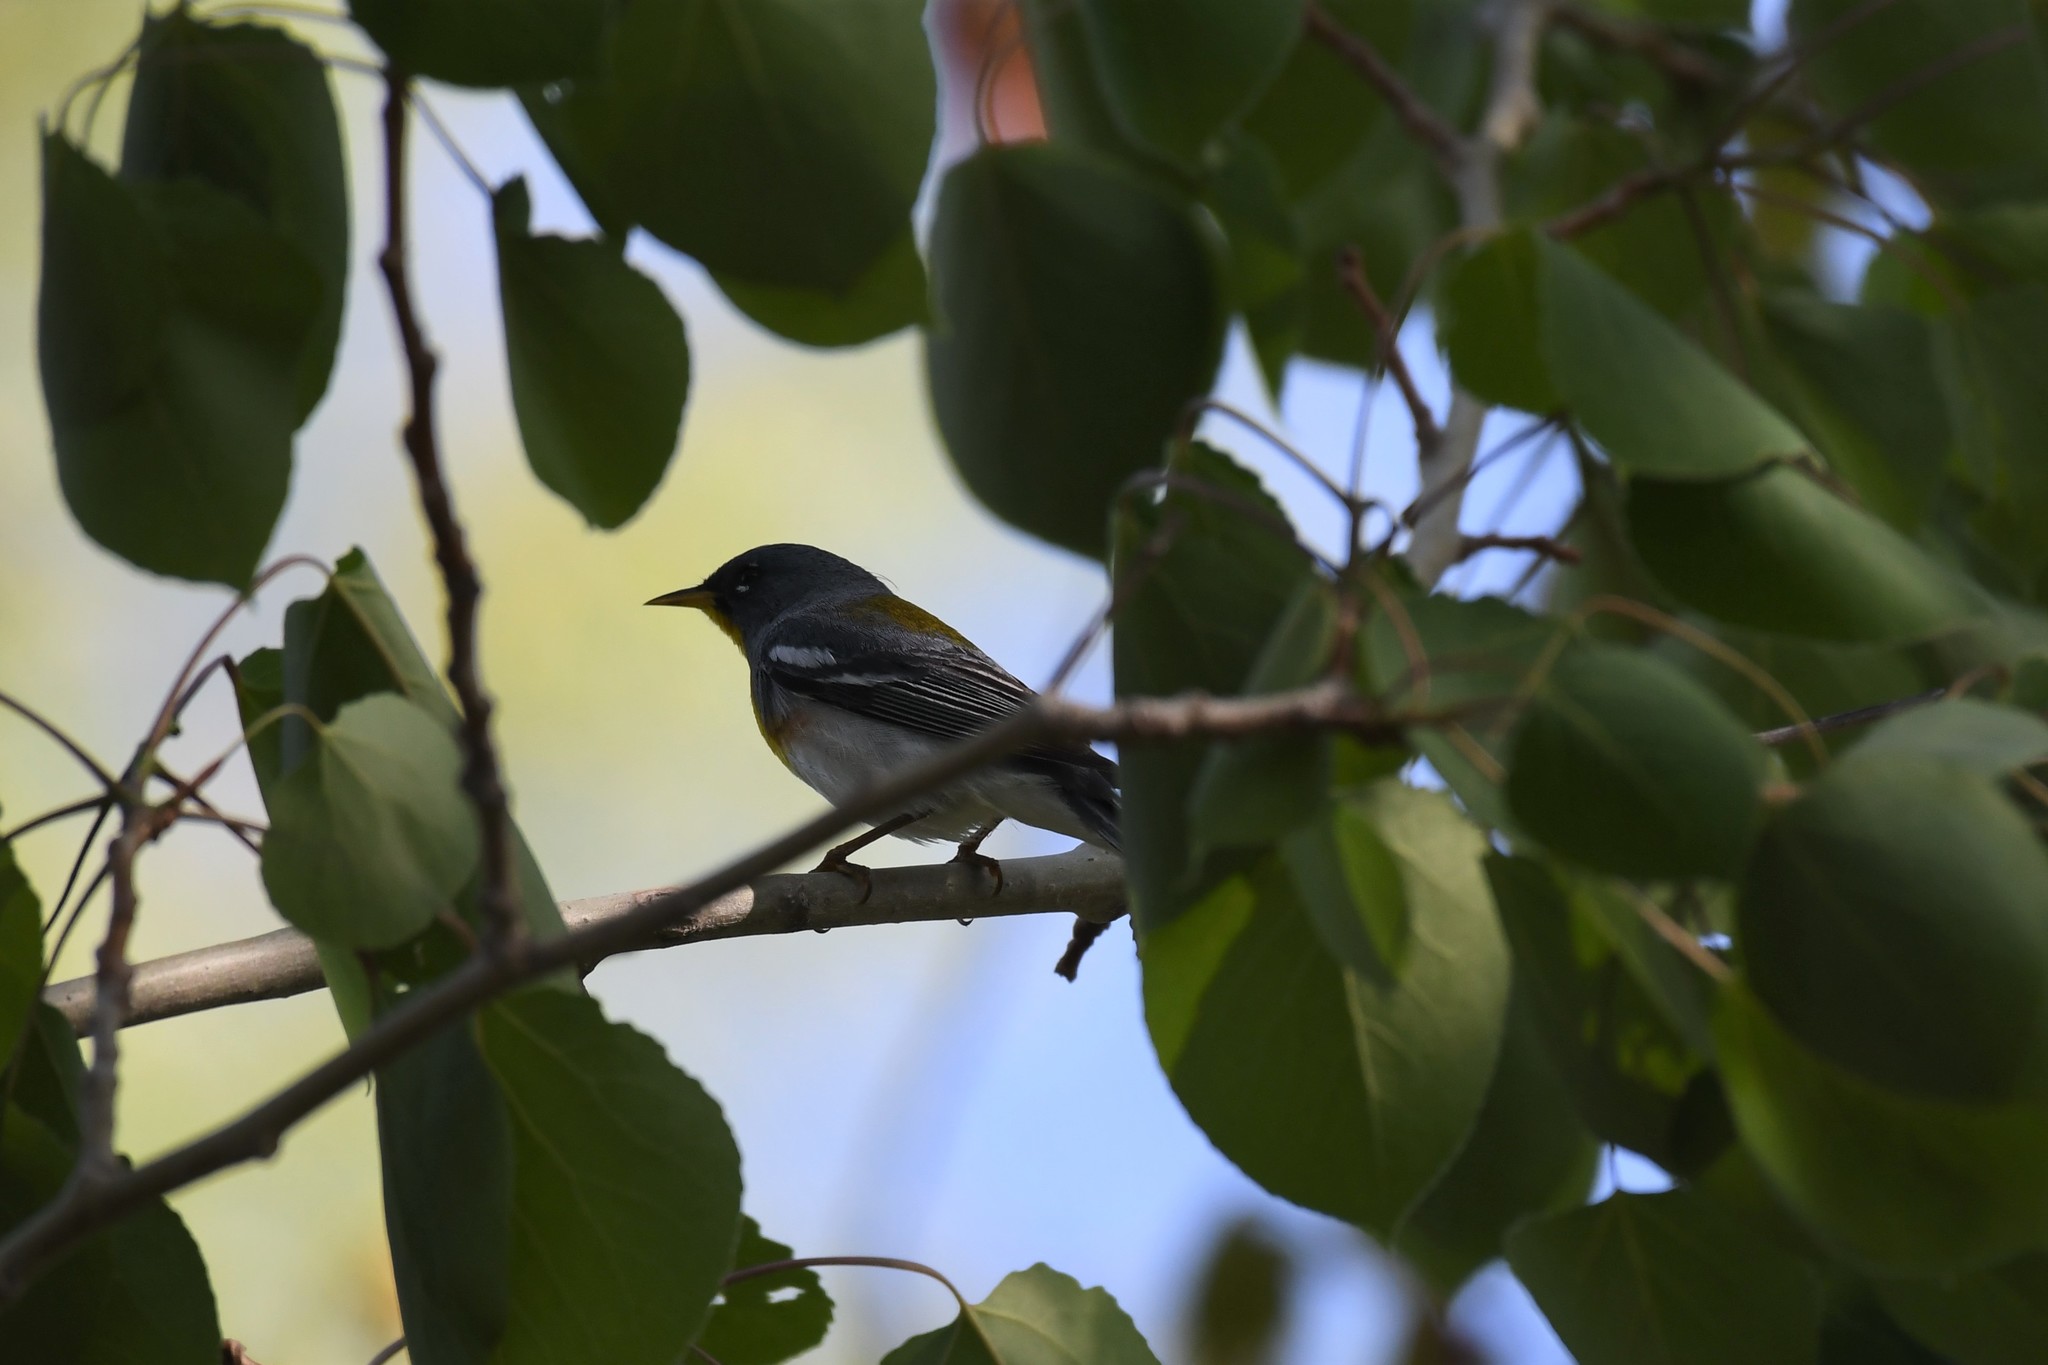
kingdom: Animalia
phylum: Chordata
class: Aves
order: Passeriformes
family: Parulidae
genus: Setophaga
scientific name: Setophaga americana
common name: Northern parula
